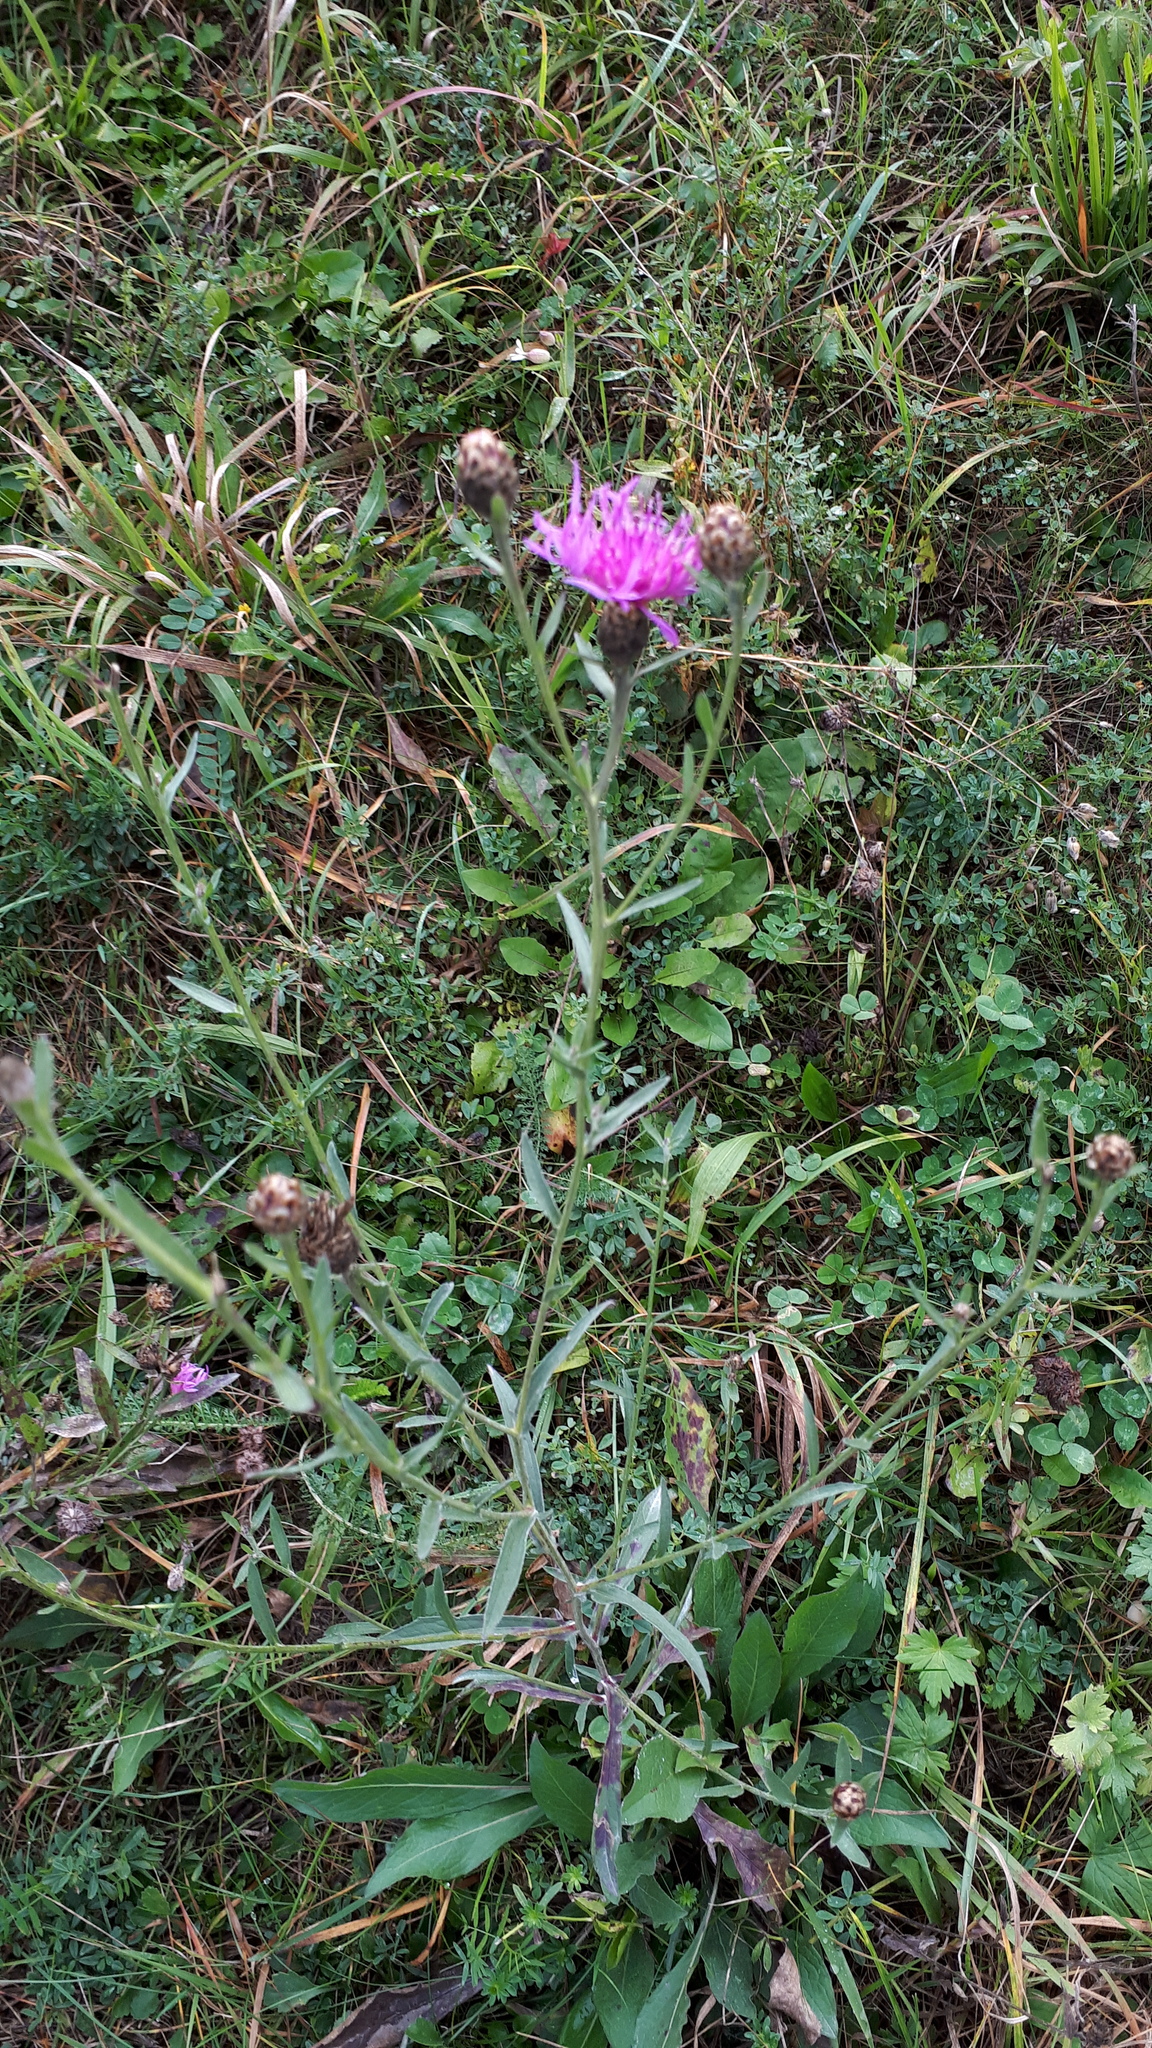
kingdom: Plantae
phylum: Tracheophyta
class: Magnoliopsida
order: Asterales
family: Asteraceae
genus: Centaurea
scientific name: Centaurea jacea
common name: Brown knapweed
